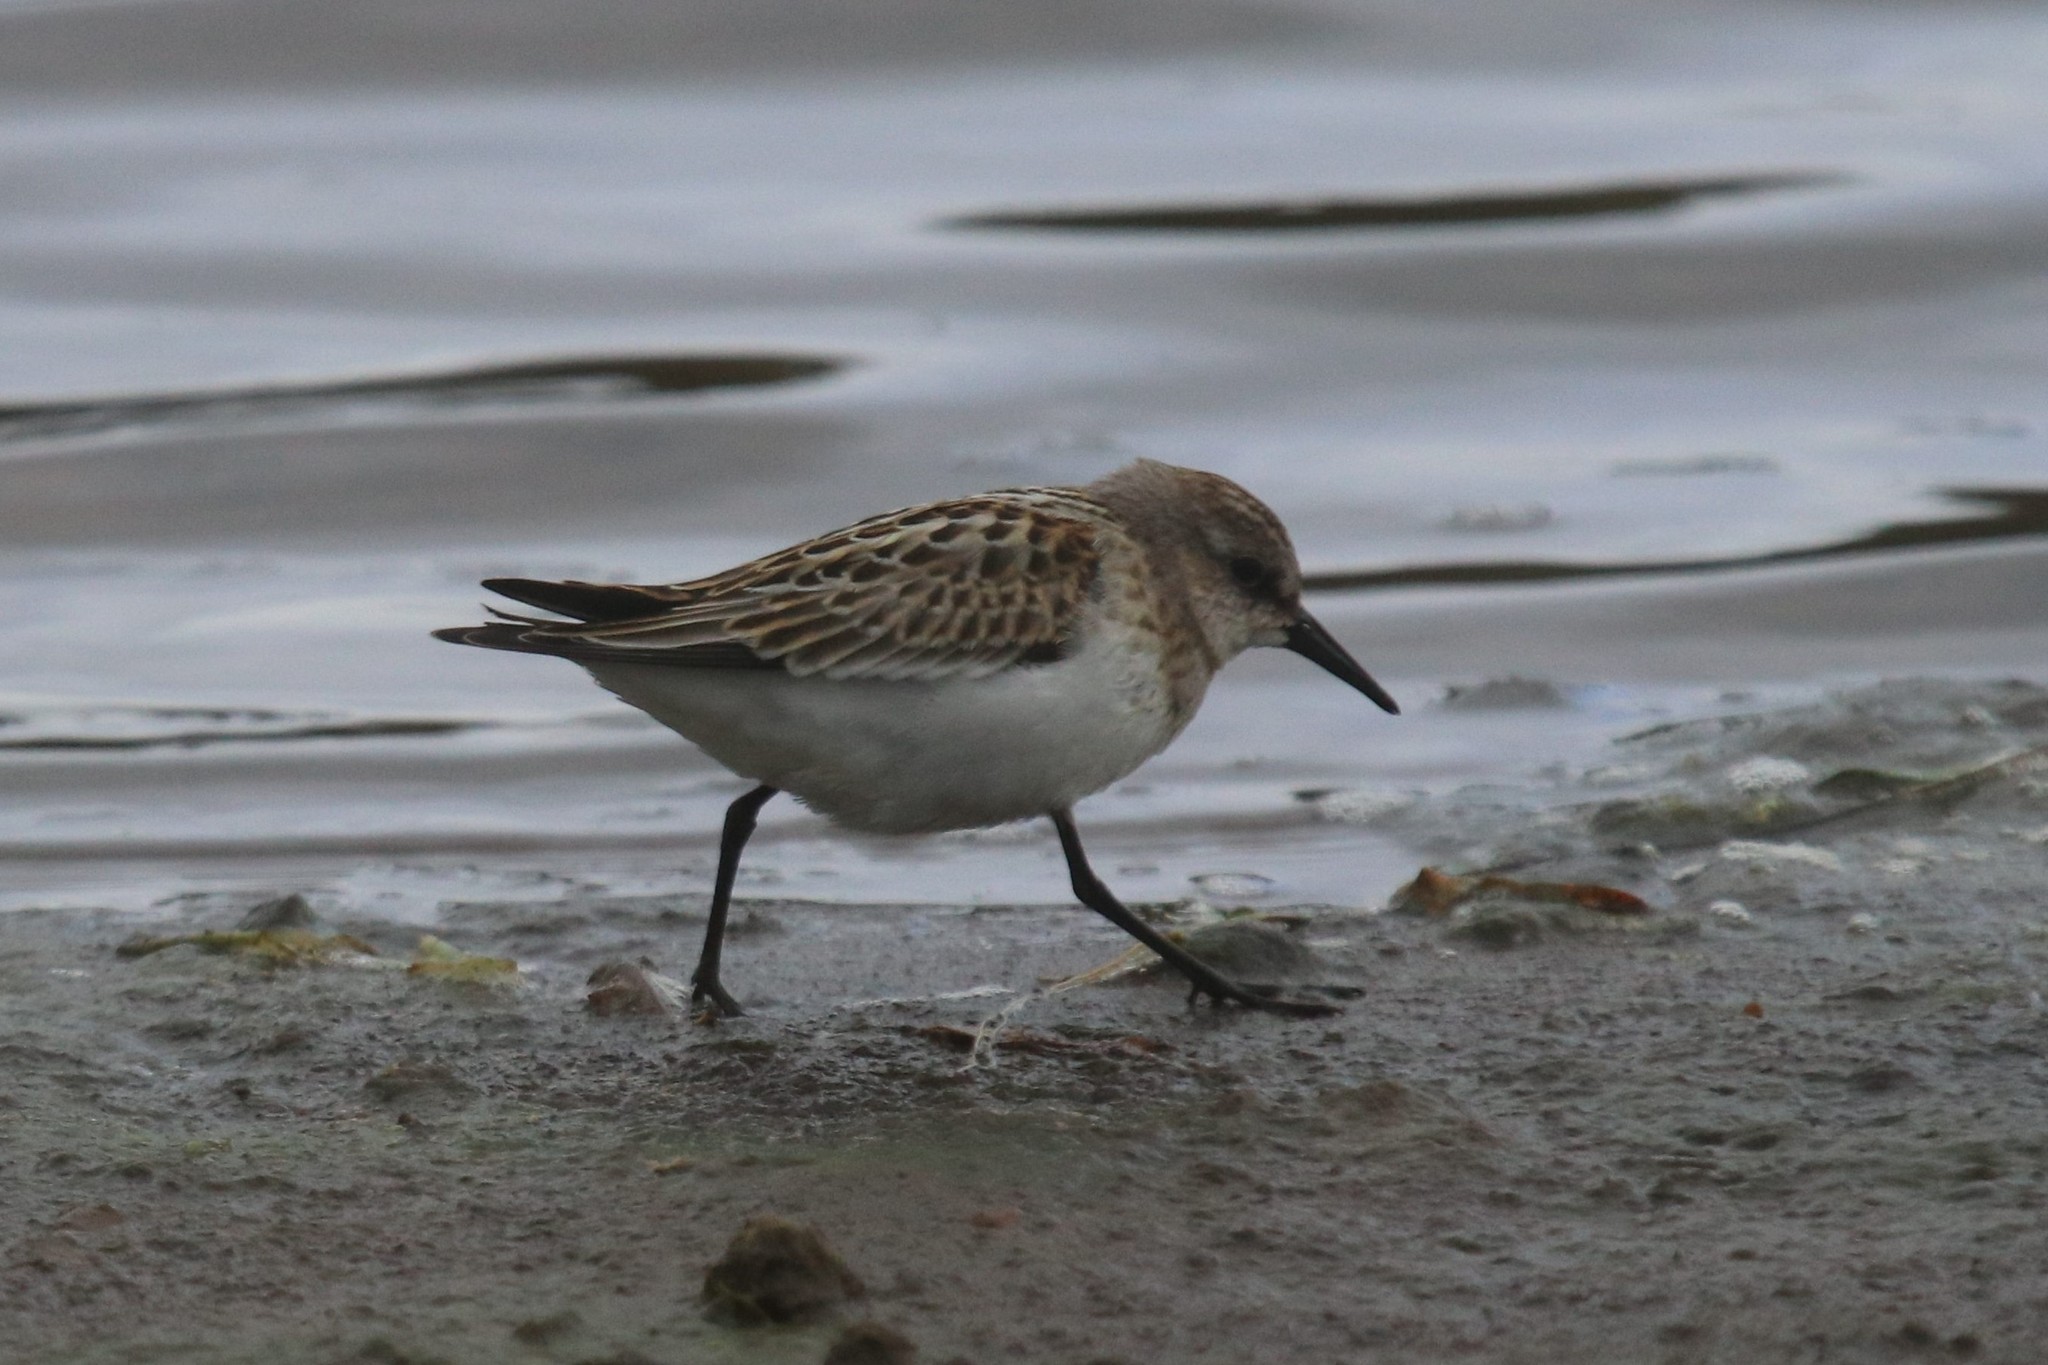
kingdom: Animalia
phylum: Chordata
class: Aves
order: Charadriiformes
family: Scolopacidae
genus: Calidris
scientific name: Calidris minuta
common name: Little stint
